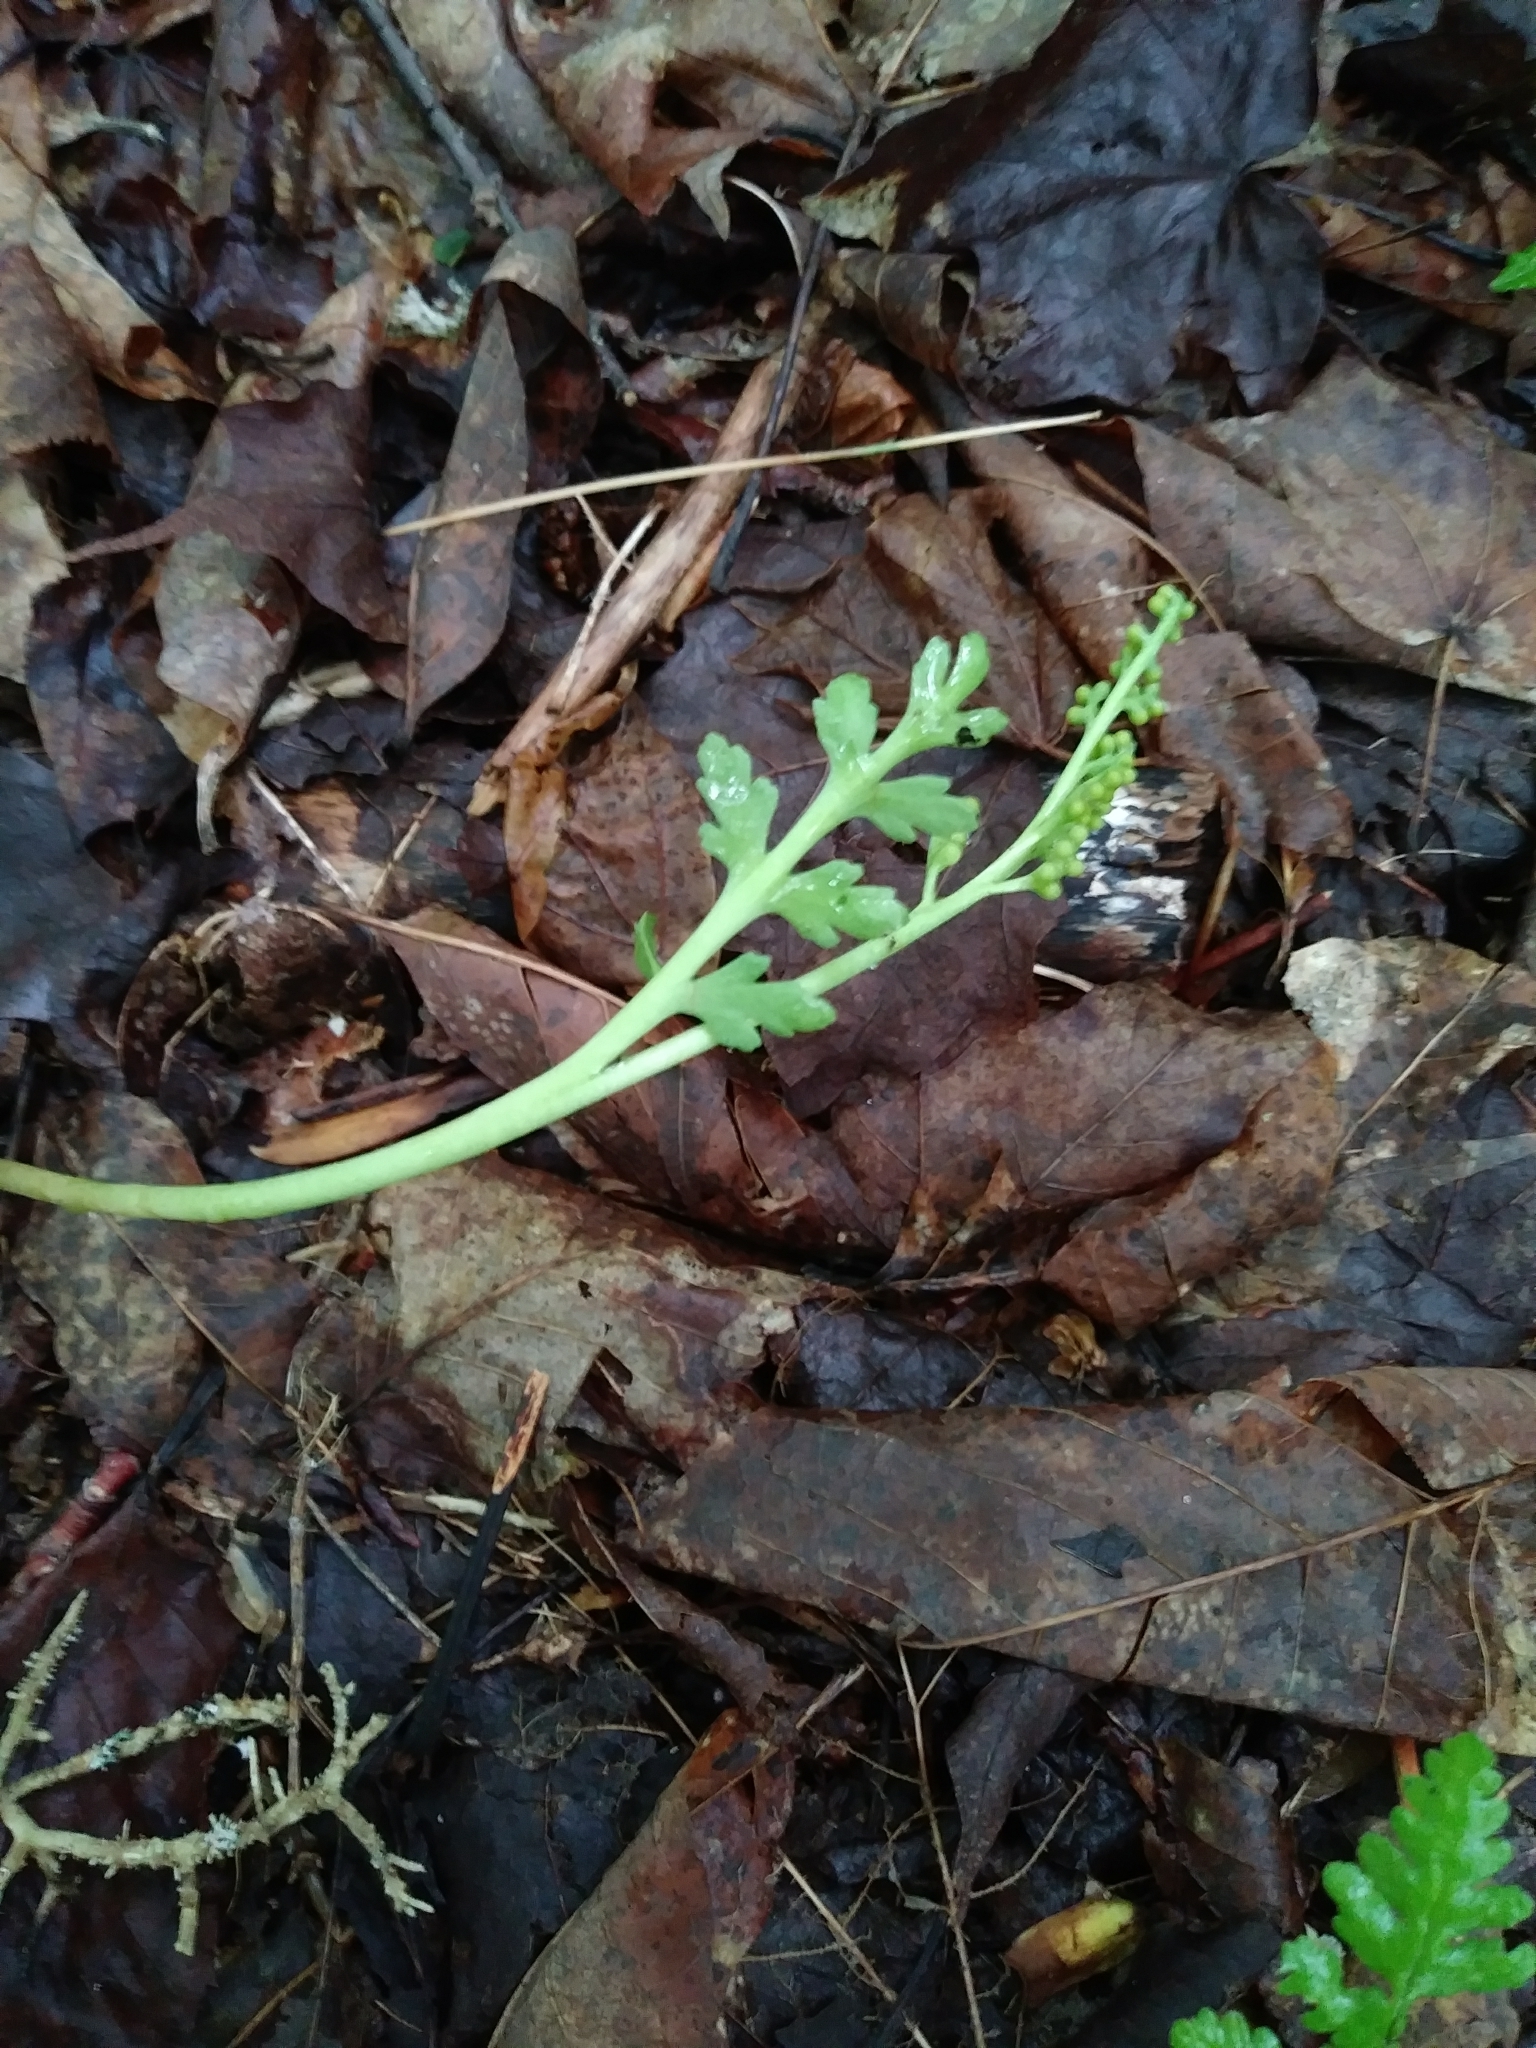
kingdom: Plantae
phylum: Tracheophyta
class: Polypodiopsida
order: Ophioglossales
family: Ophioglossaceae
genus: Botrychium
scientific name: Botrychium matricariifolium
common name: Branched moonwort
